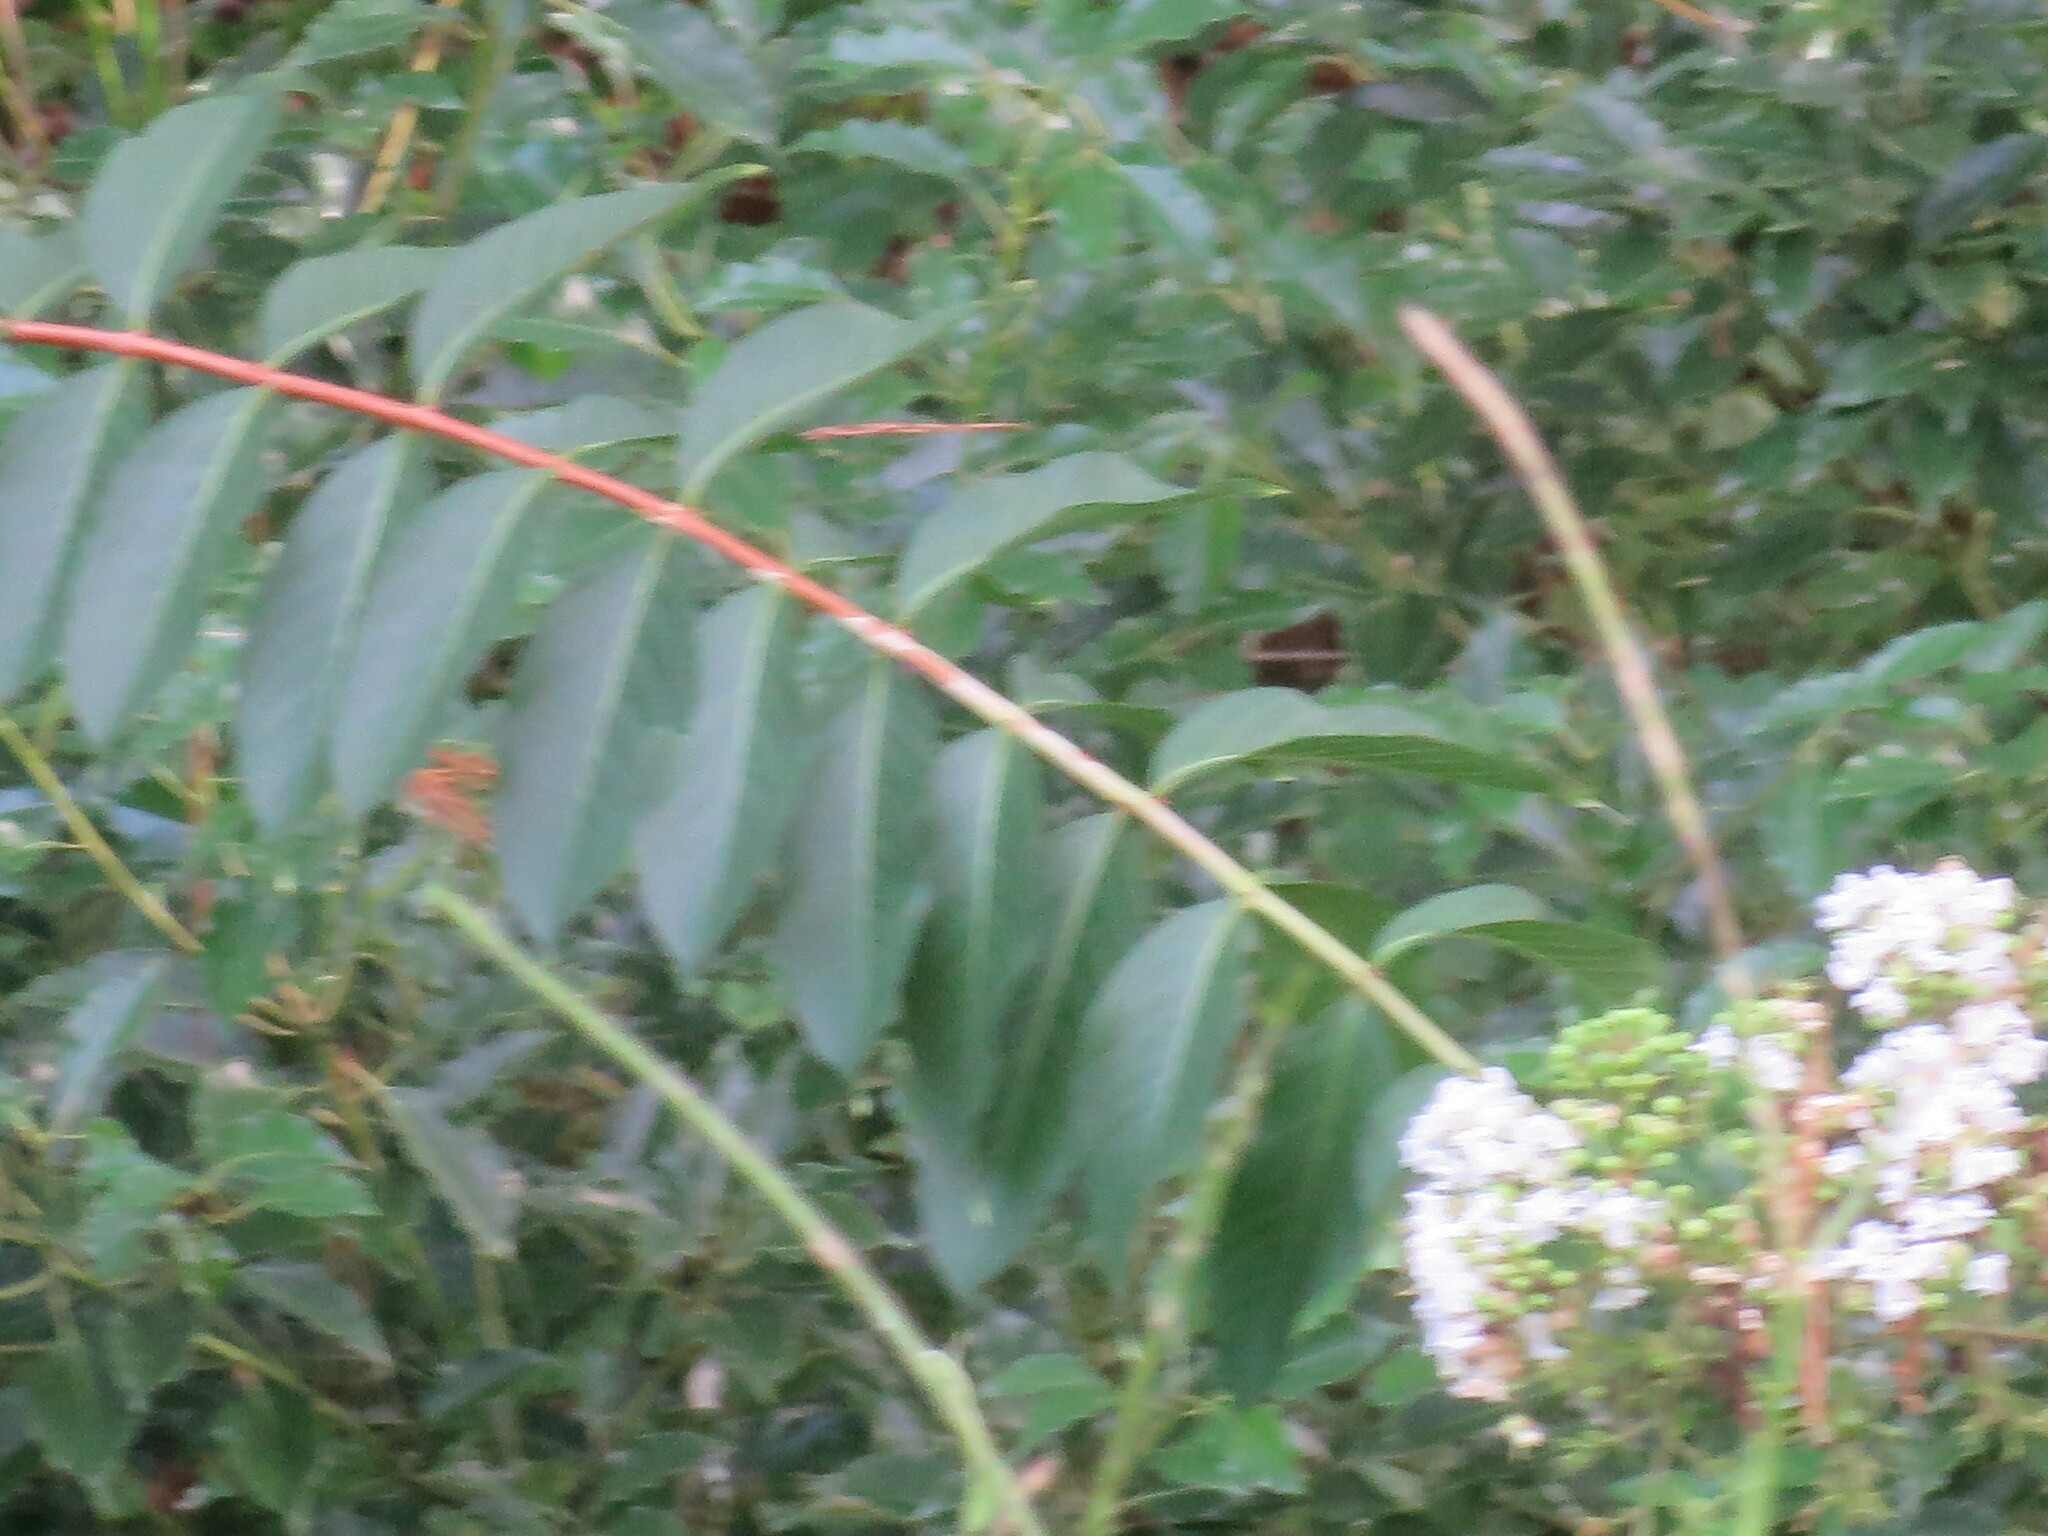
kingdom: Plantae
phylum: Tracheophyta
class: Magnoliopsida
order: Myrtales
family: Lythraceae
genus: Lagerstroemia
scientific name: Lagerstroemia indica
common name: Crape-myrtle
